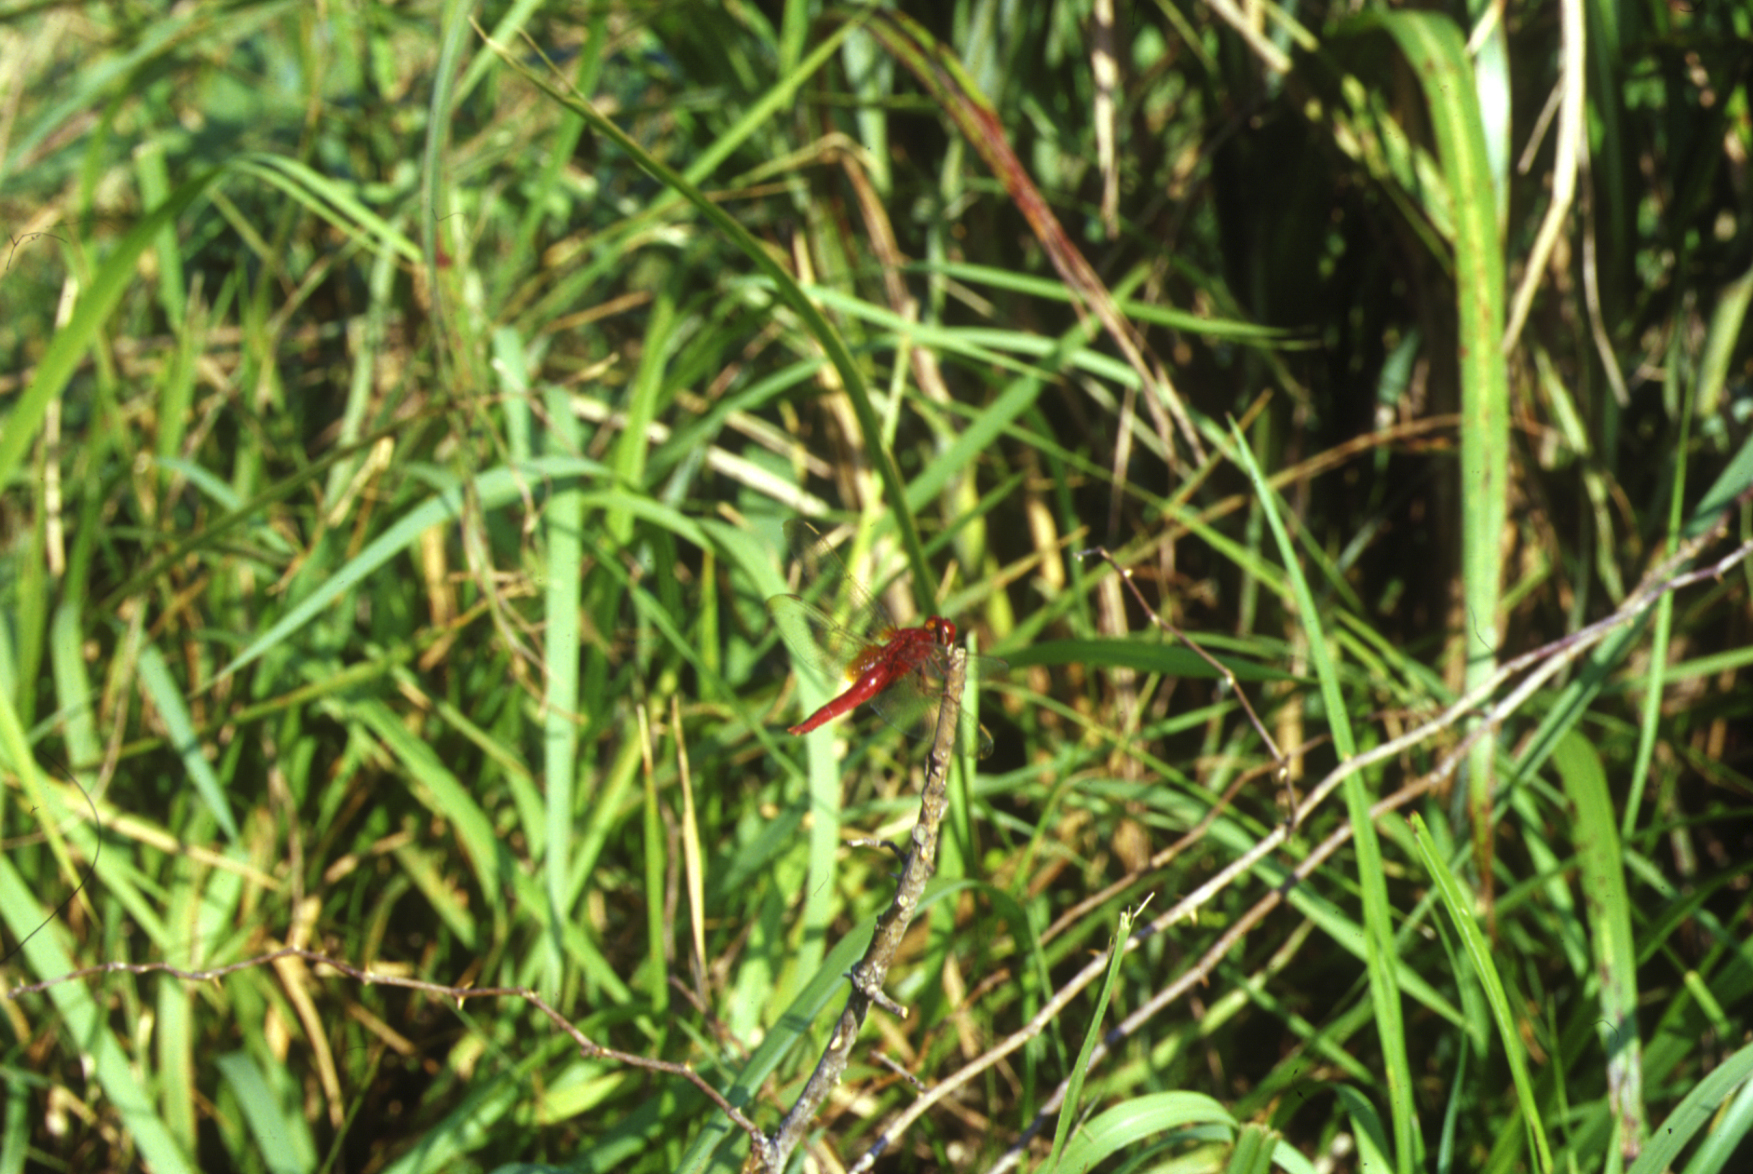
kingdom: Animalia
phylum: Arthropoda
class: Insecta
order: Odonata
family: Libellulidae
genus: Crocothemis
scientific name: Crocothemis servilia
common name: Scarlet skimmer
